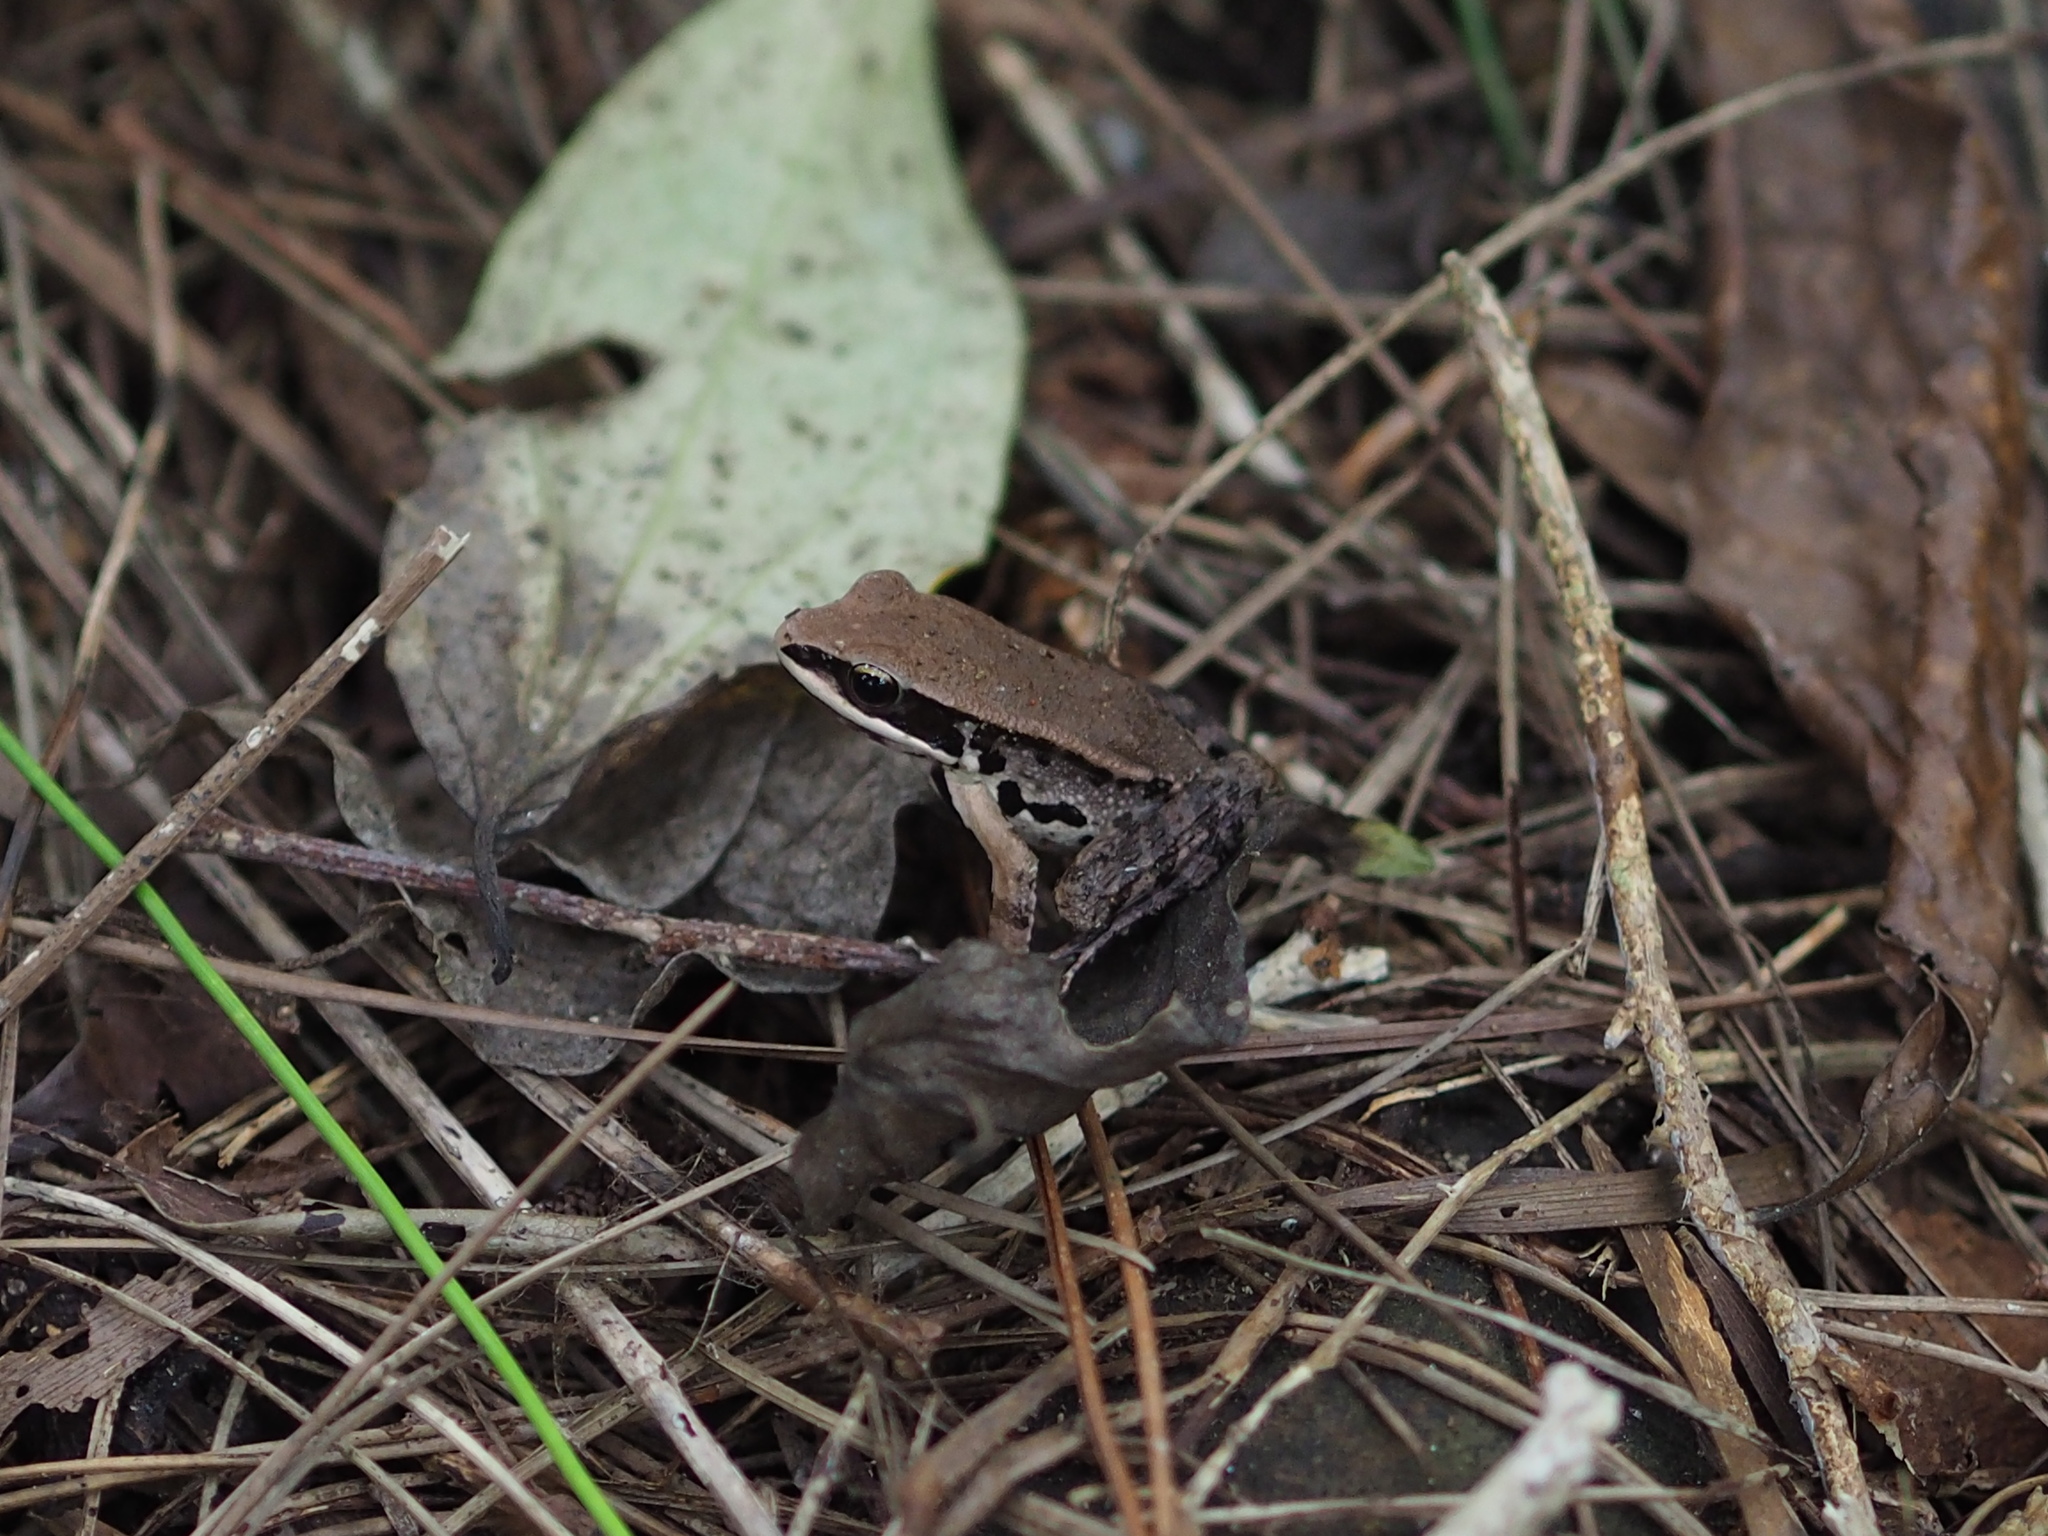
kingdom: Animalia
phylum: Chordata
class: Amphibia
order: Anura
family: Ranidae
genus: Hylarana
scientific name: Hylarana latouchii
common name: Broad-folded frog
